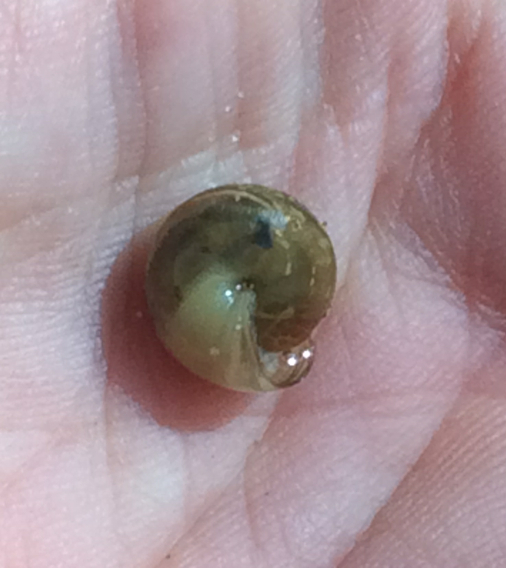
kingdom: Animalia
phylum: Mollusca
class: Gastropoda
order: Stylommatophora
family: Gastrodontidae
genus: Ventridens
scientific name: Ventridens demissus
